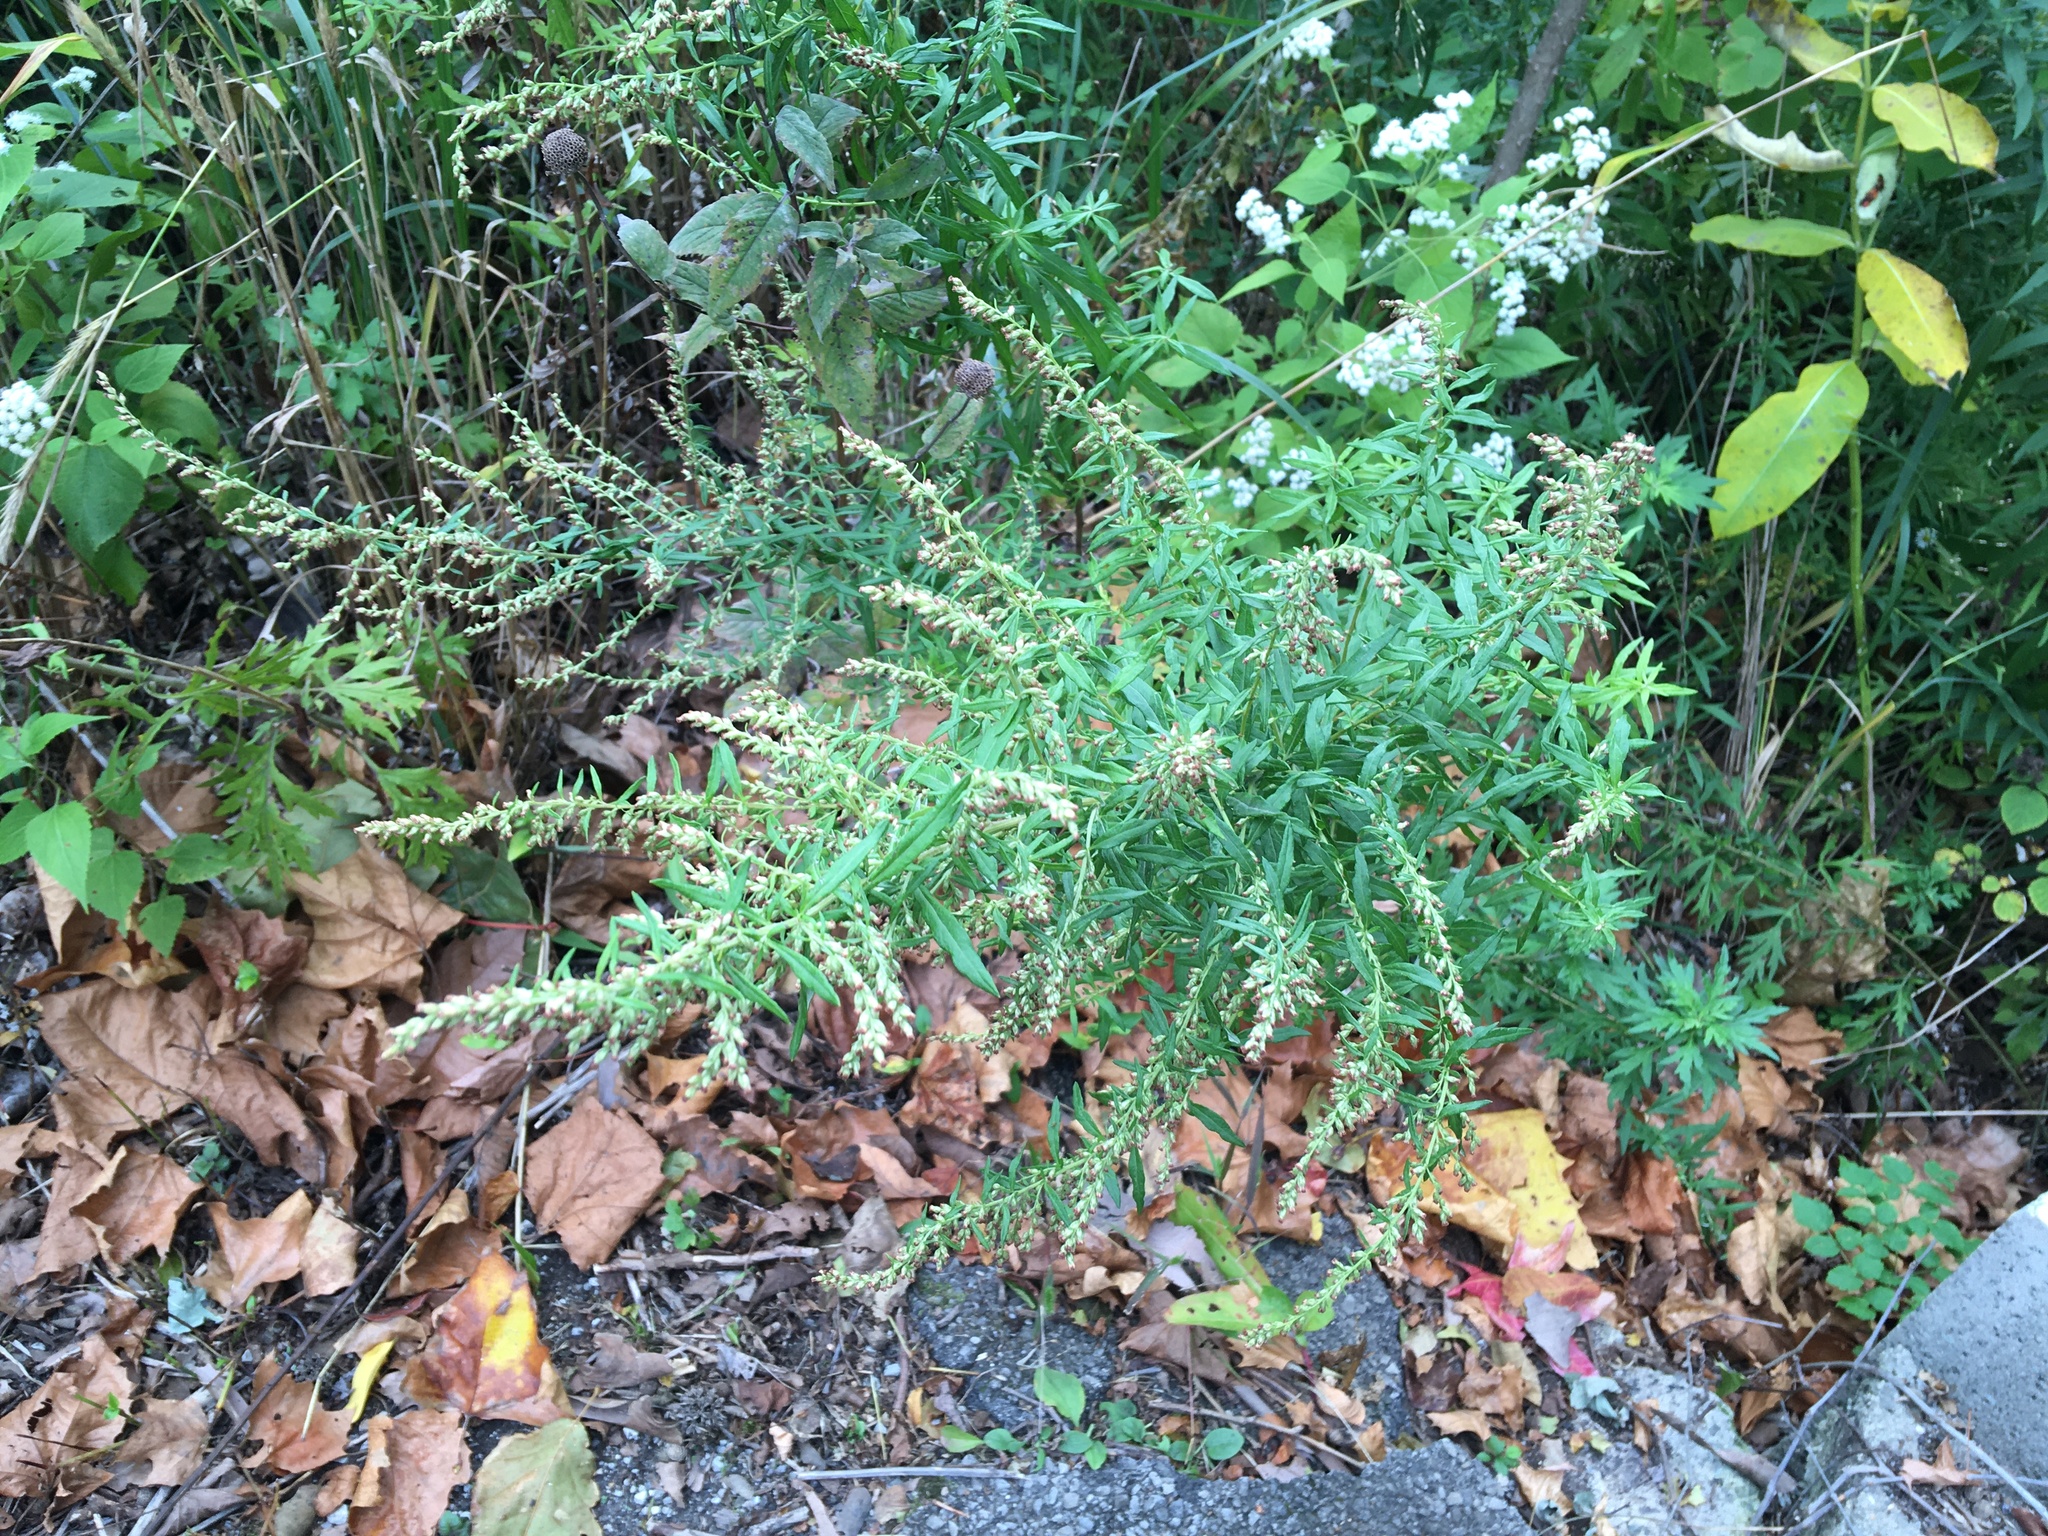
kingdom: Plantae
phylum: Tracheophyta
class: Magnoliopsida
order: Asterales
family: Asteraceae
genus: Artemisia
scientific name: Artemisia vulgaris
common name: Mugwort
